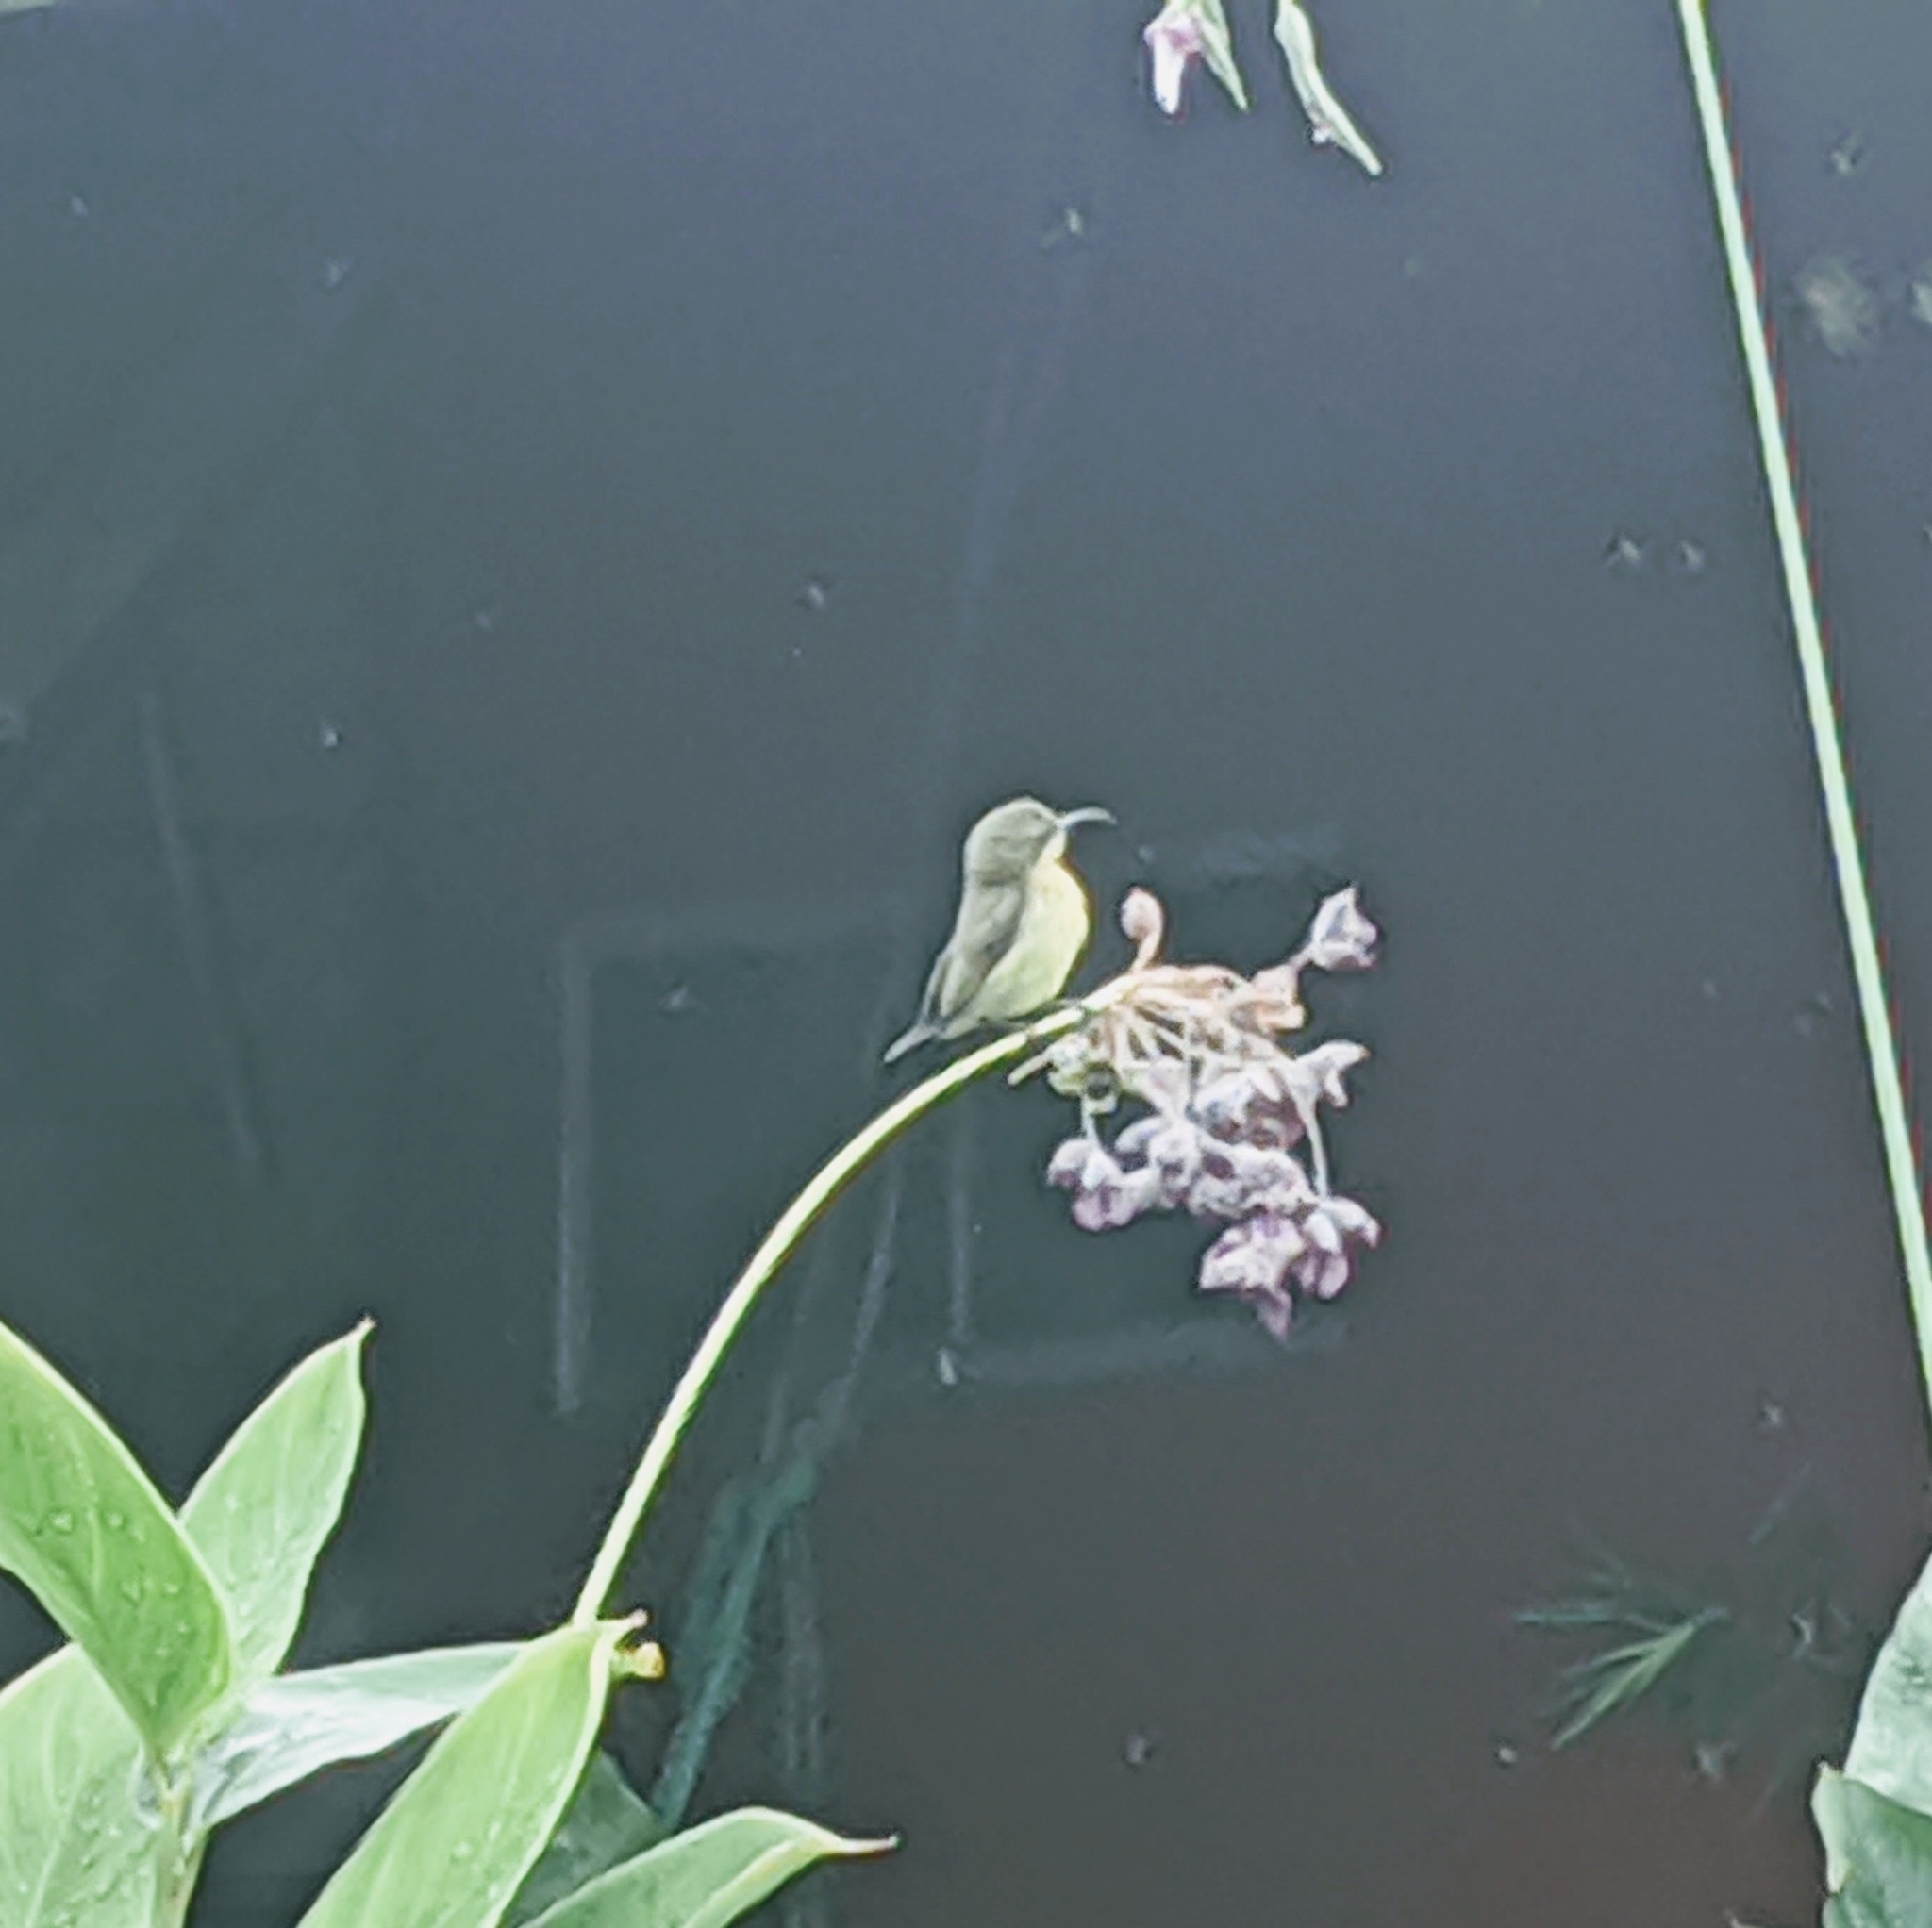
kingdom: Animalia
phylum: Chordata
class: Aves
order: Passeriformes
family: Nectariniidae
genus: Cinnyris
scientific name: Cinnyris
